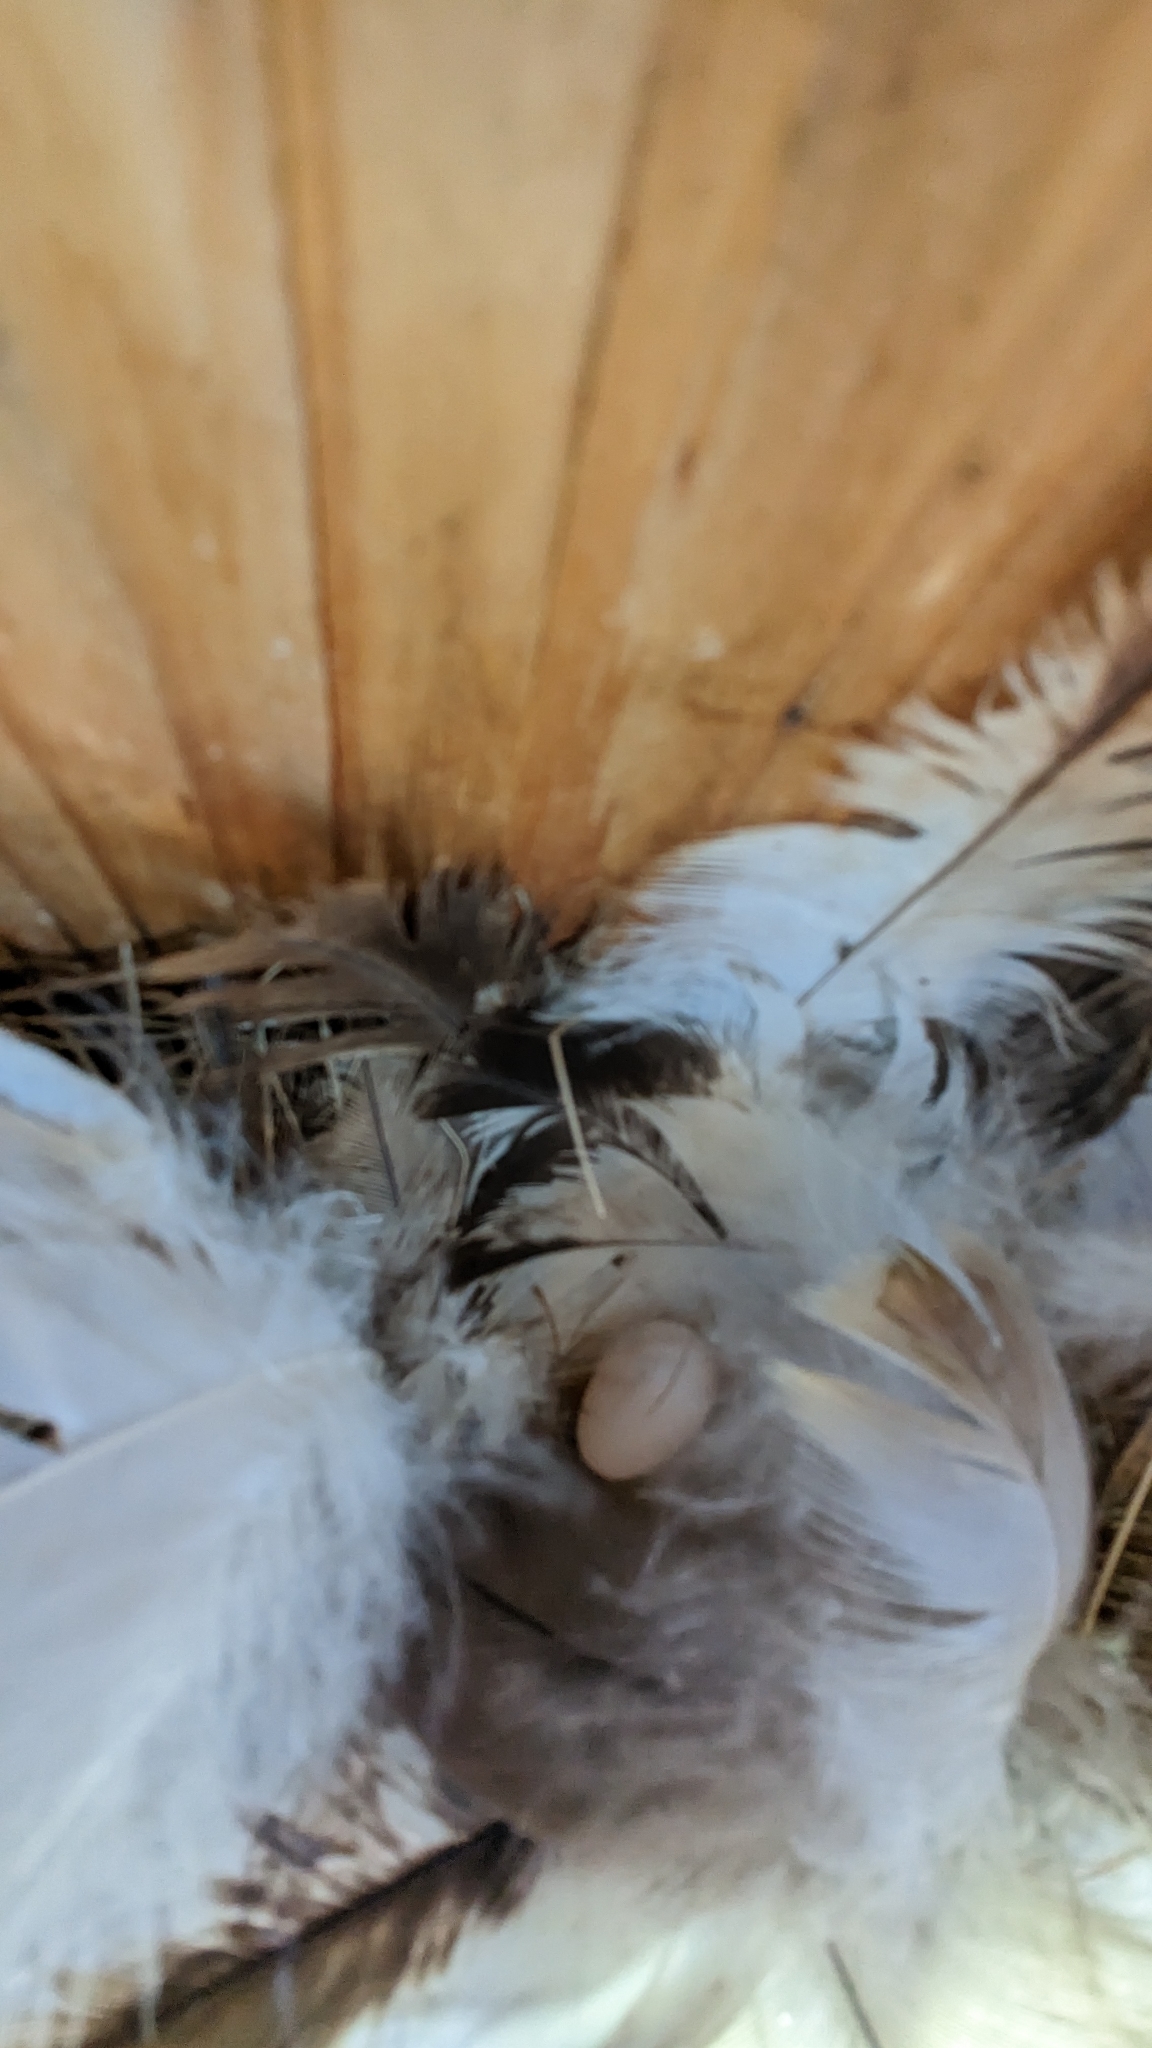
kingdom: Animalia
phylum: Chordata
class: Aves
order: Passeriformes
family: Hirundinidae
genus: Tachycineta
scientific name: Tachycineta bicolor
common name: Tree swallow
